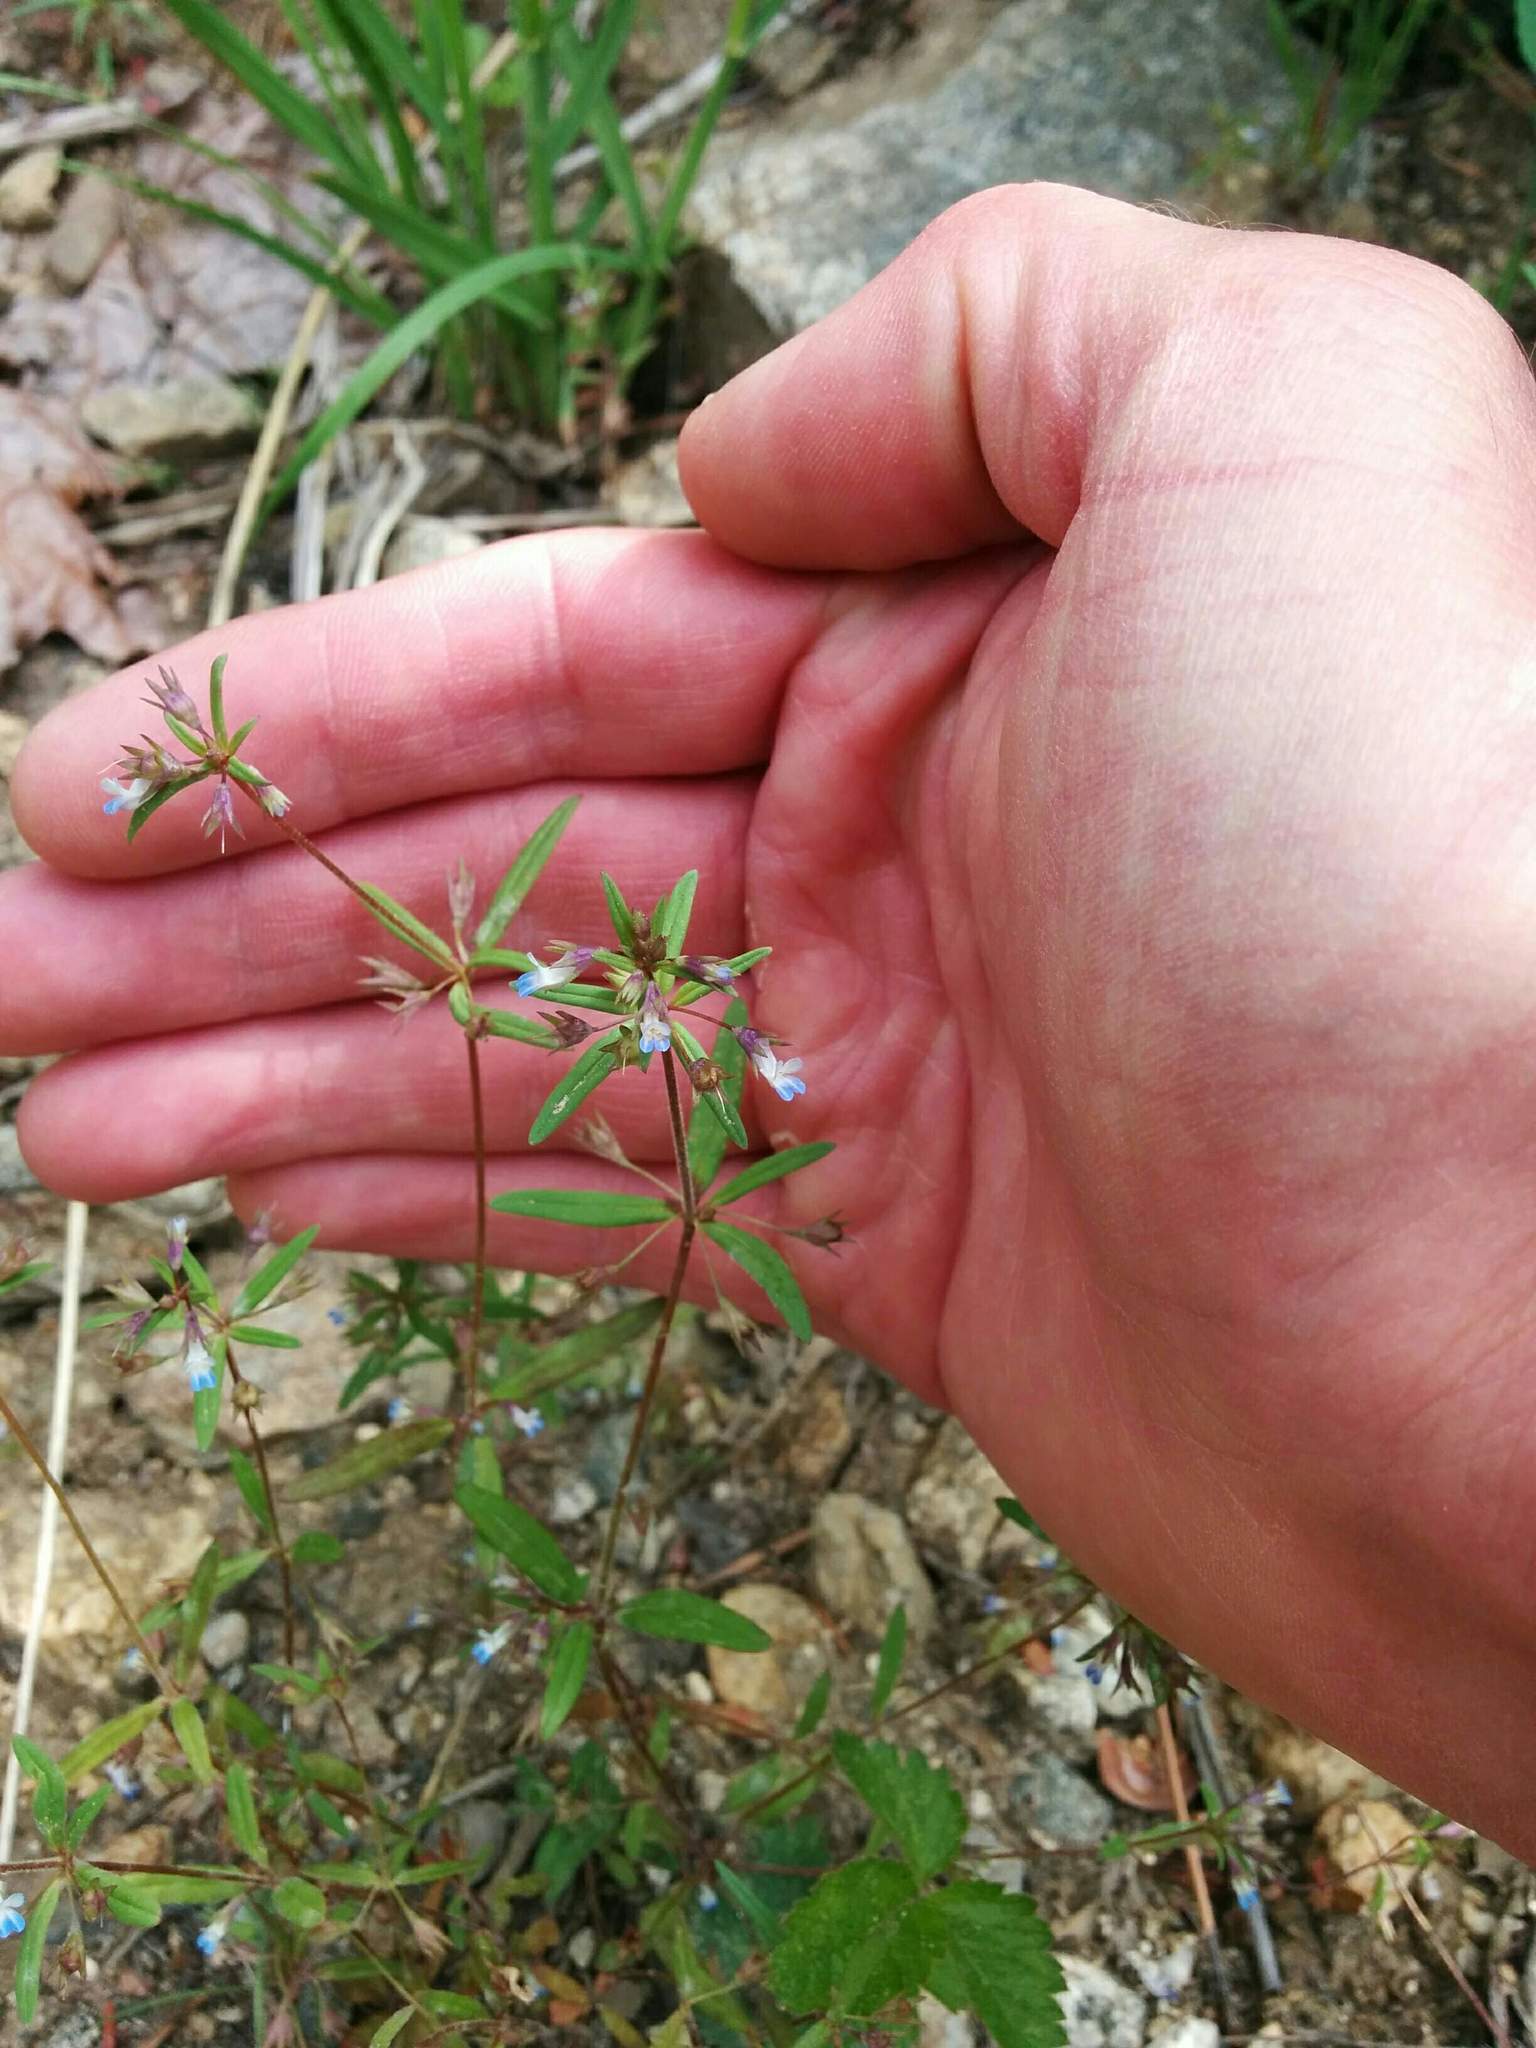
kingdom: Plantae
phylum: Tracheophyta
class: Magnoliopsida
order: Lamiales
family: Plantaginaceae
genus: Collinsia
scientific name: Collinsia parviflora
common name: Blue-lips
